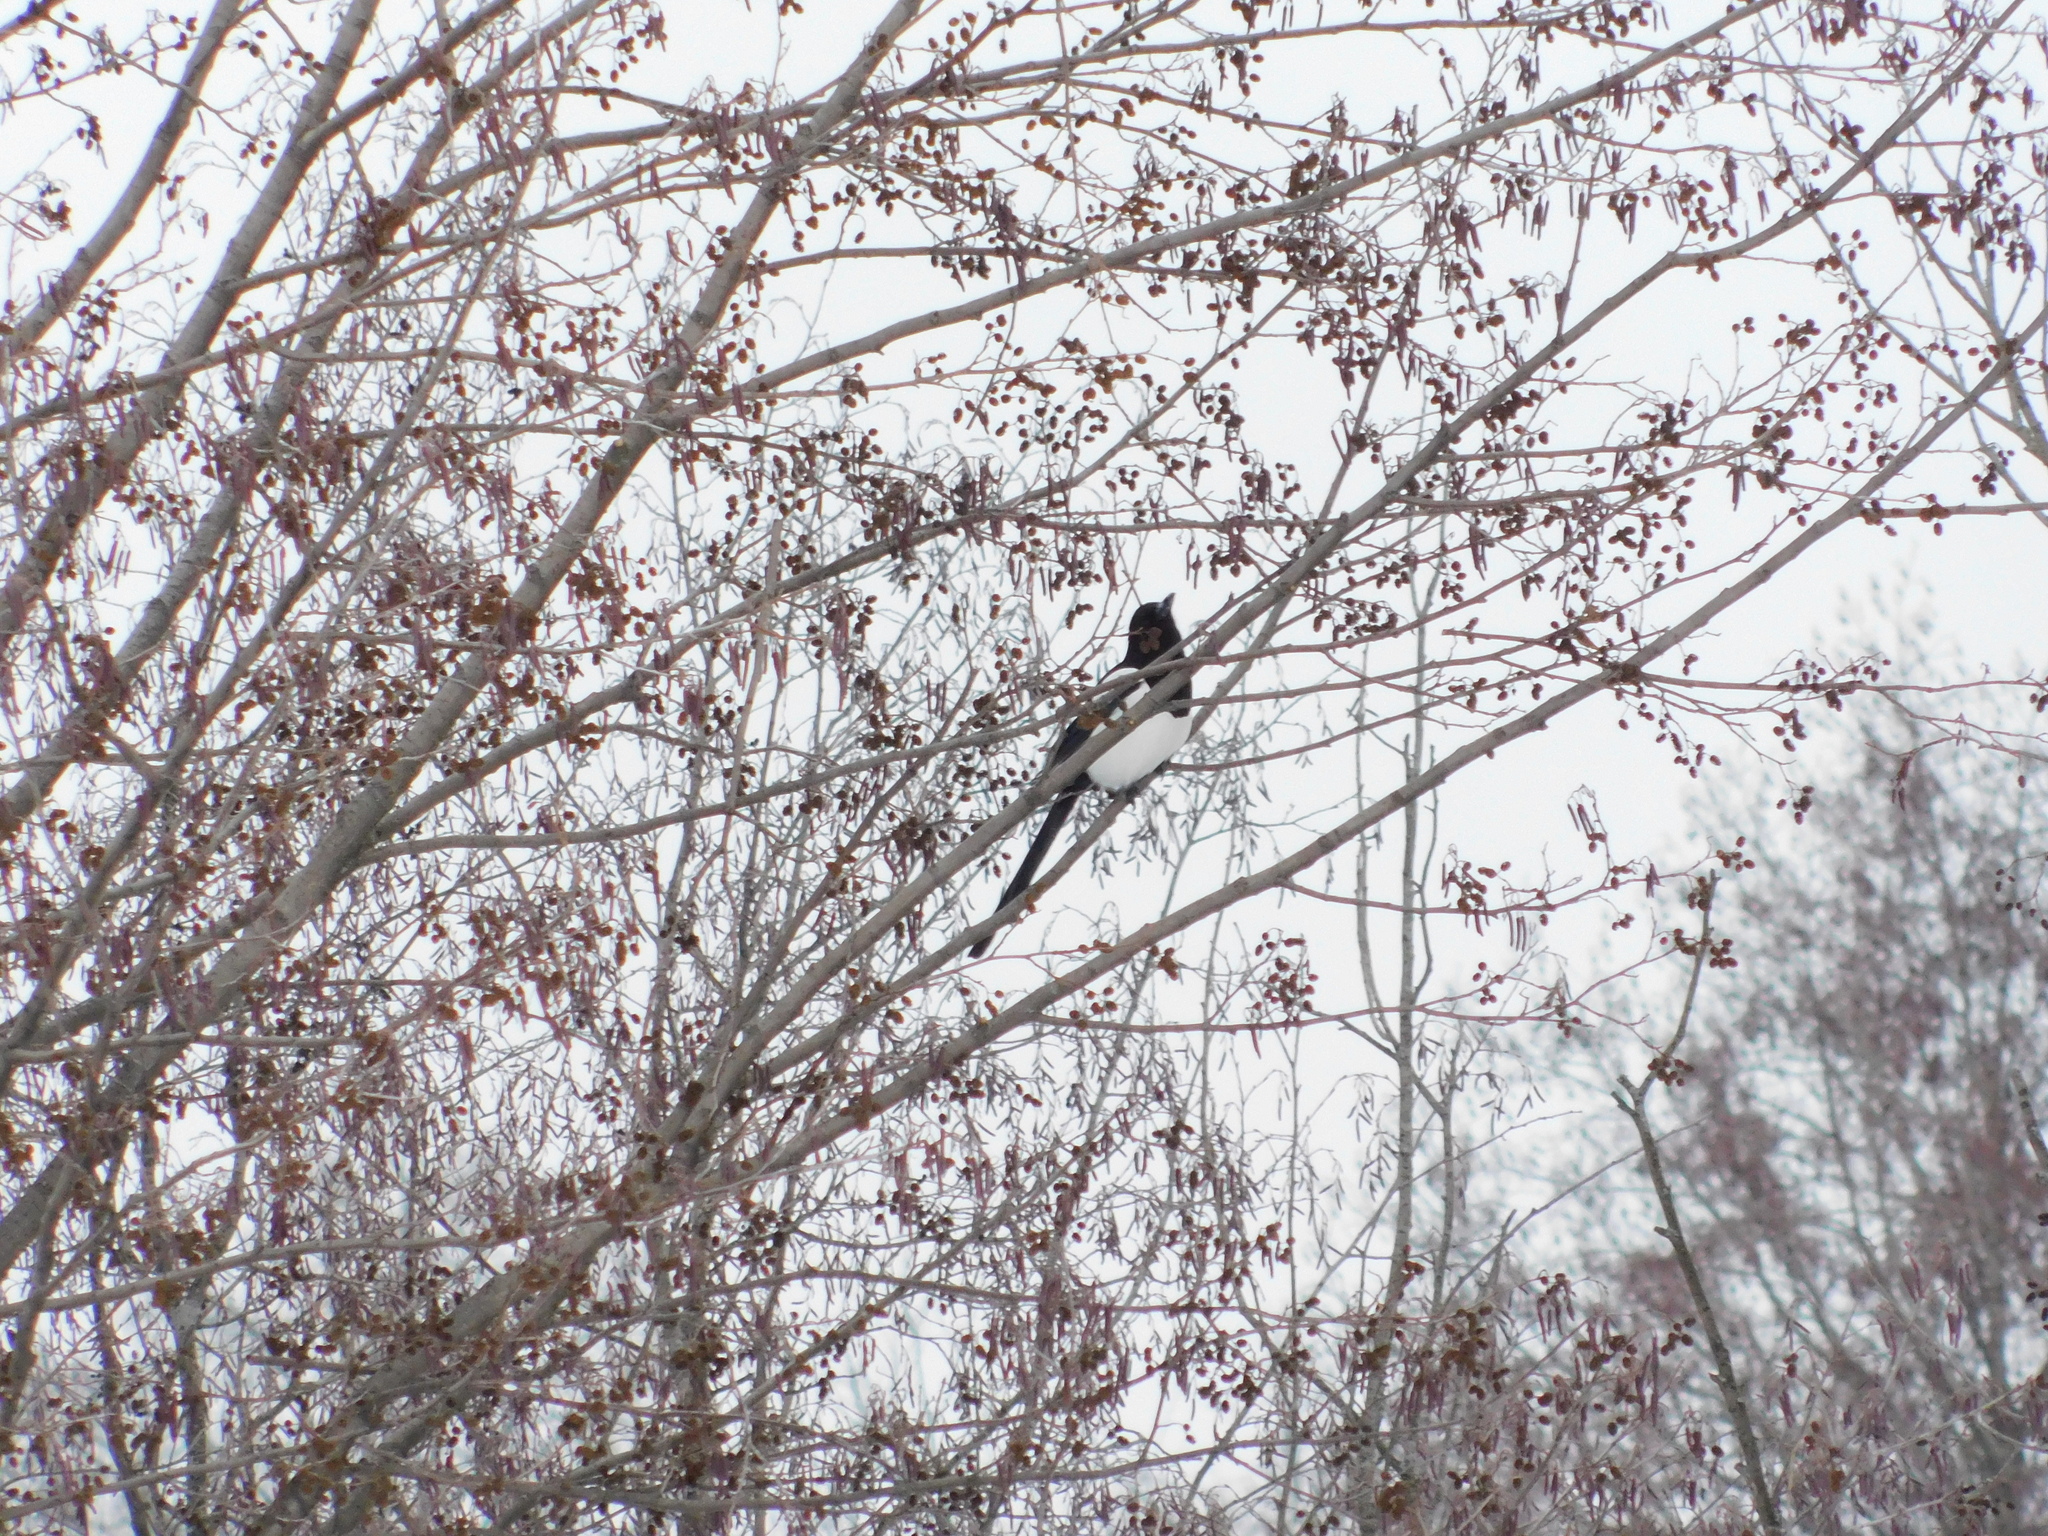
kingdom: Animalia
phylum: Chordata
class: Aves
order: Passeriformes
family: Corvidae
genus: Pica
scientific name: Pica pica
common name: Eurasian magpie
